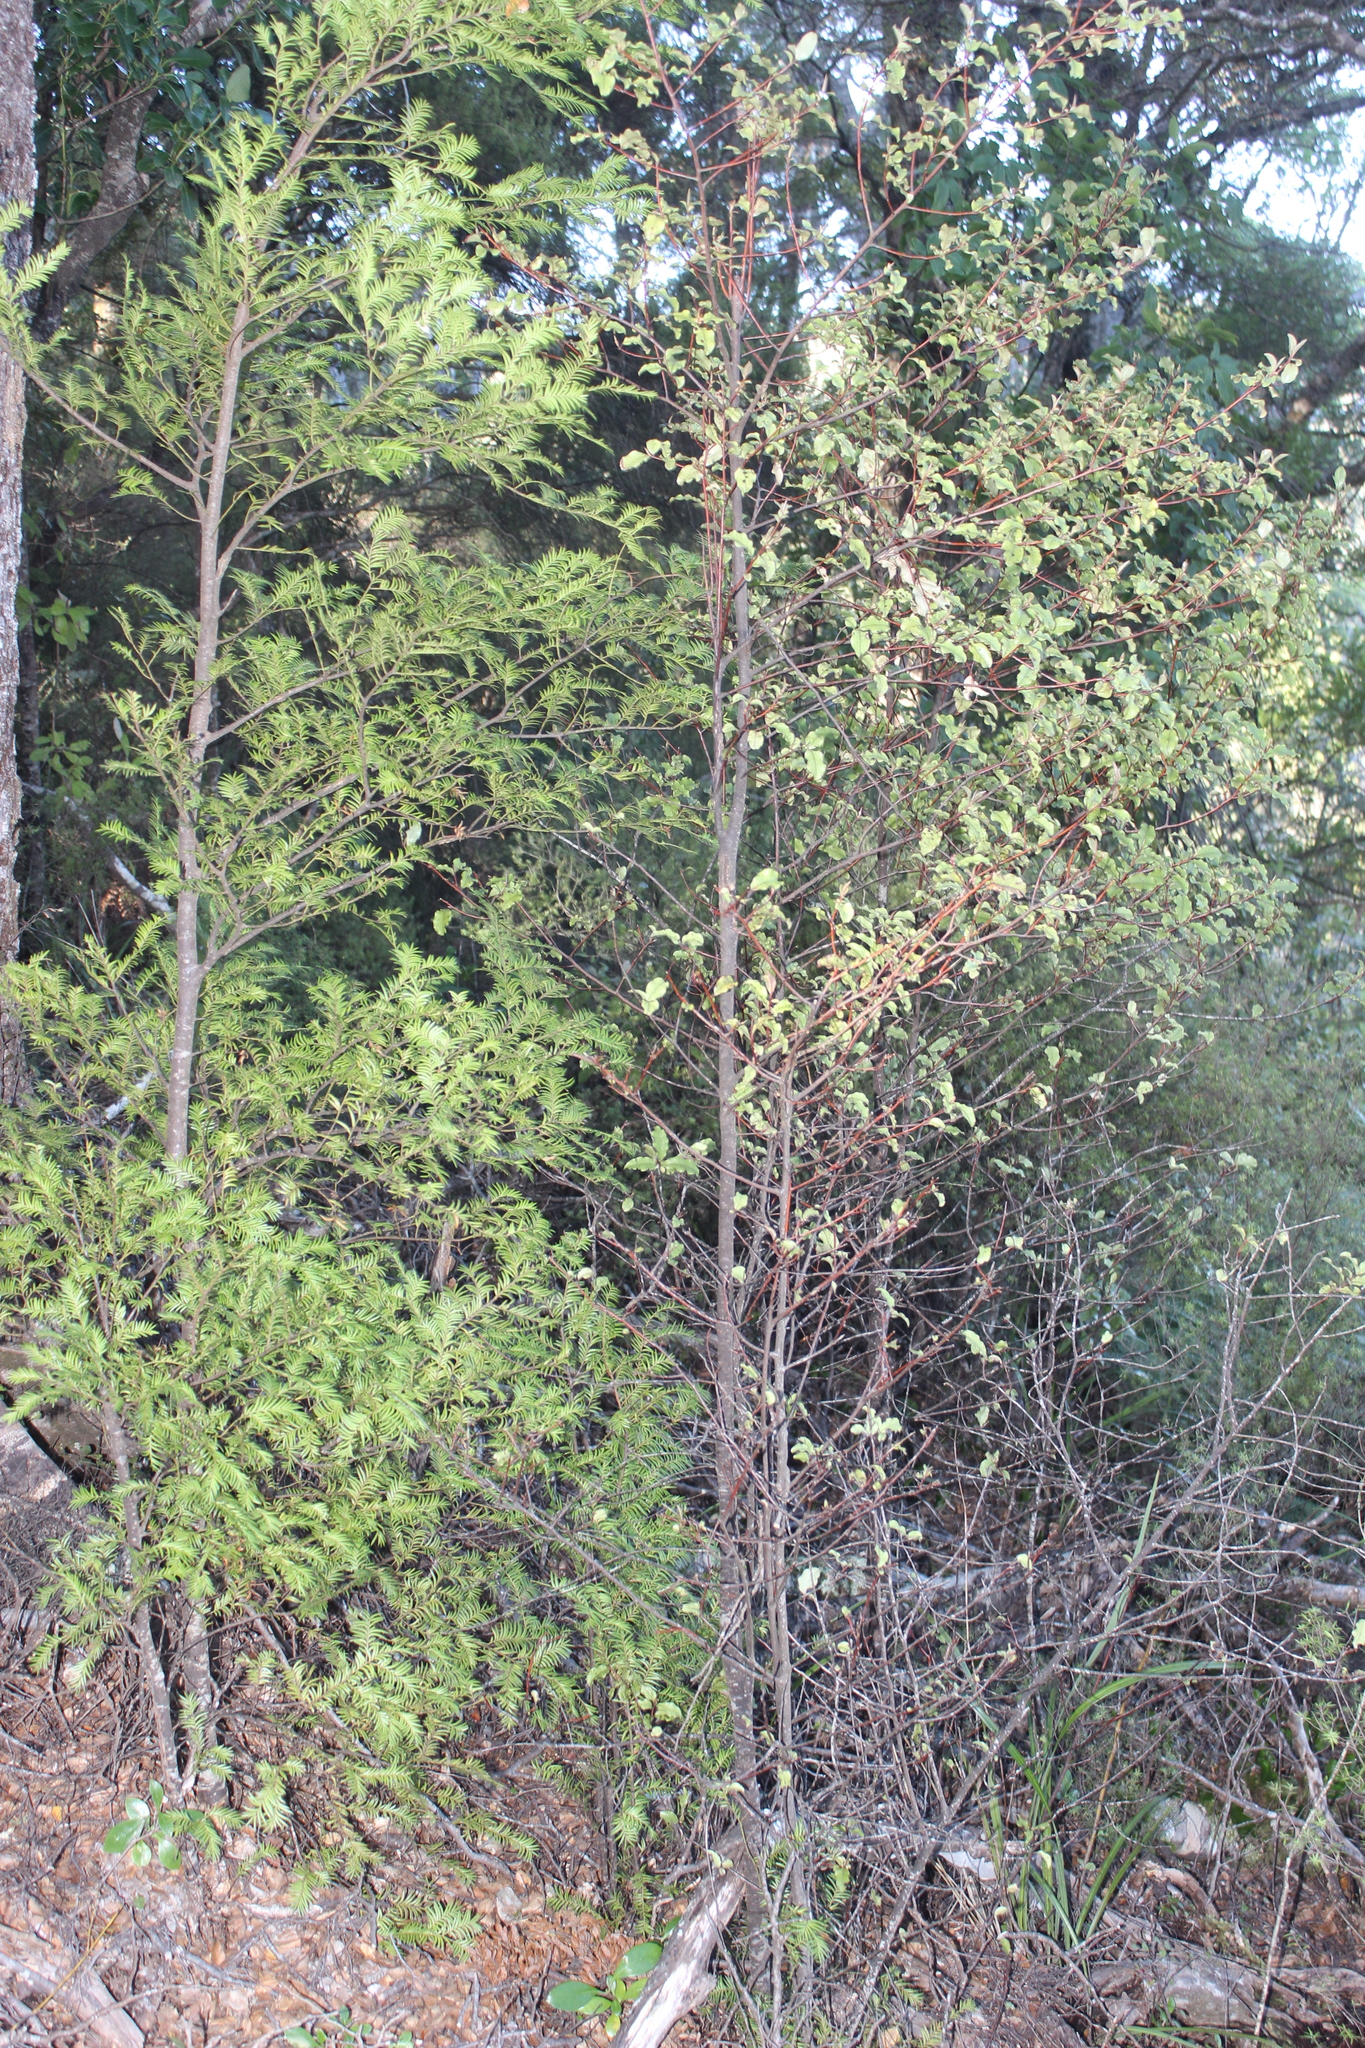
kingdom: Plantae
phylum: Tracheophyta
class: Magnoliopsida
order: Ericales
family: Primulaceae
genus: Myrsine
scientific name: Myrsine australis
